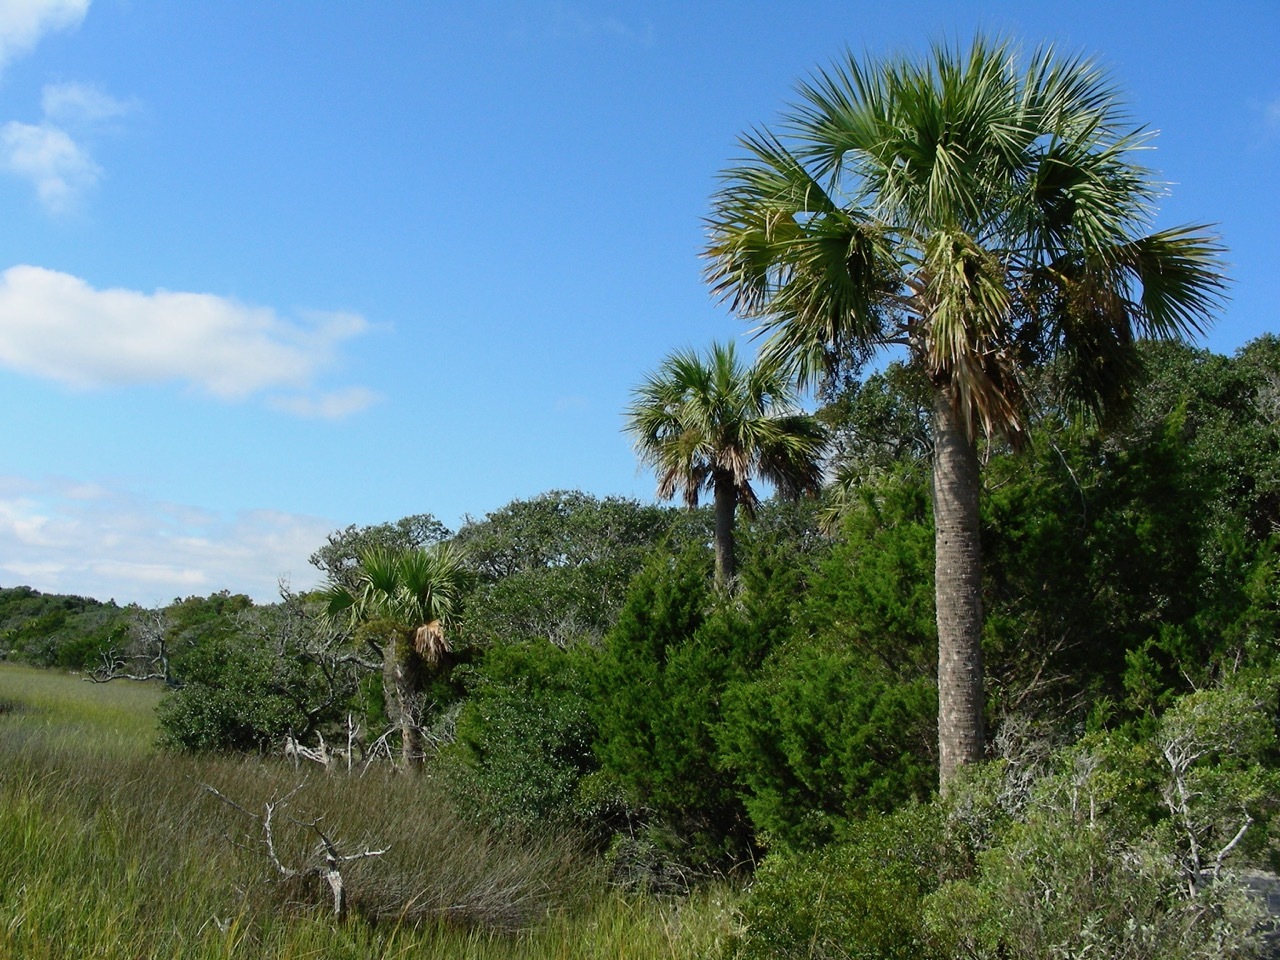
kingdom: Plantae
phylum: Tracheophyta
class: Liliopsida
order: Arecales
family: Arecaceae
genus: Sabal
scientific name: Sabal palmetto
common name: Blue palmetto
